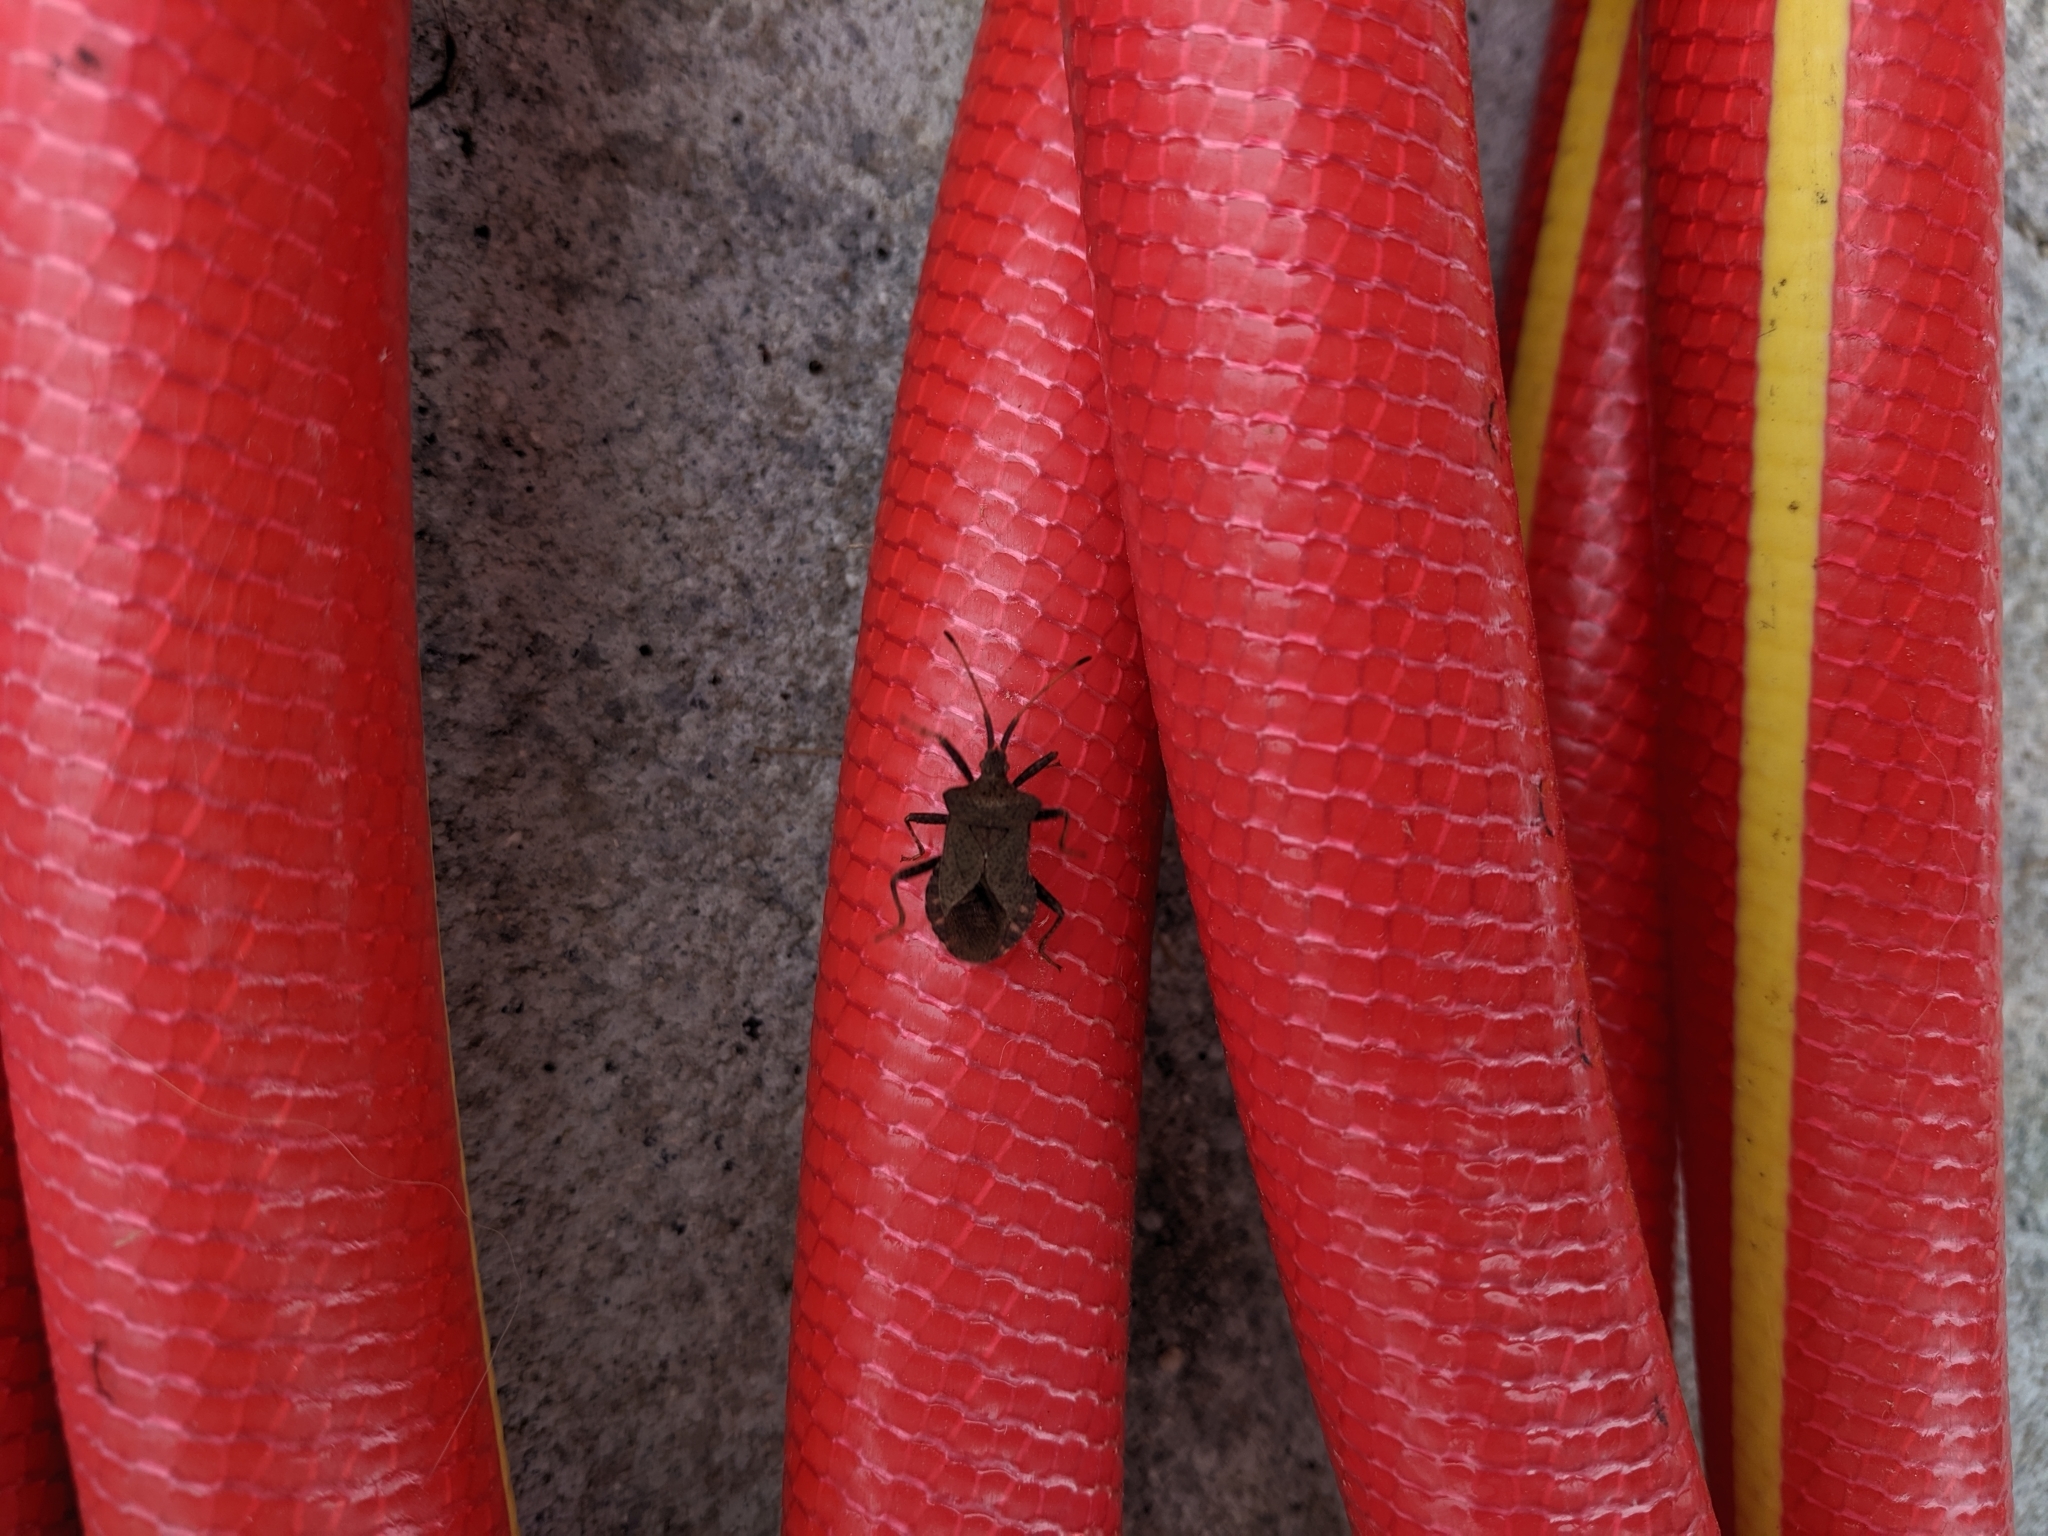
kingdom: Animalia
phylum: Arthropoda
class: Insecta
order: Hemiptera
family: Coreidae
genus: Coreus
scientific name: Coreus marginatus
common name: Dock bug
